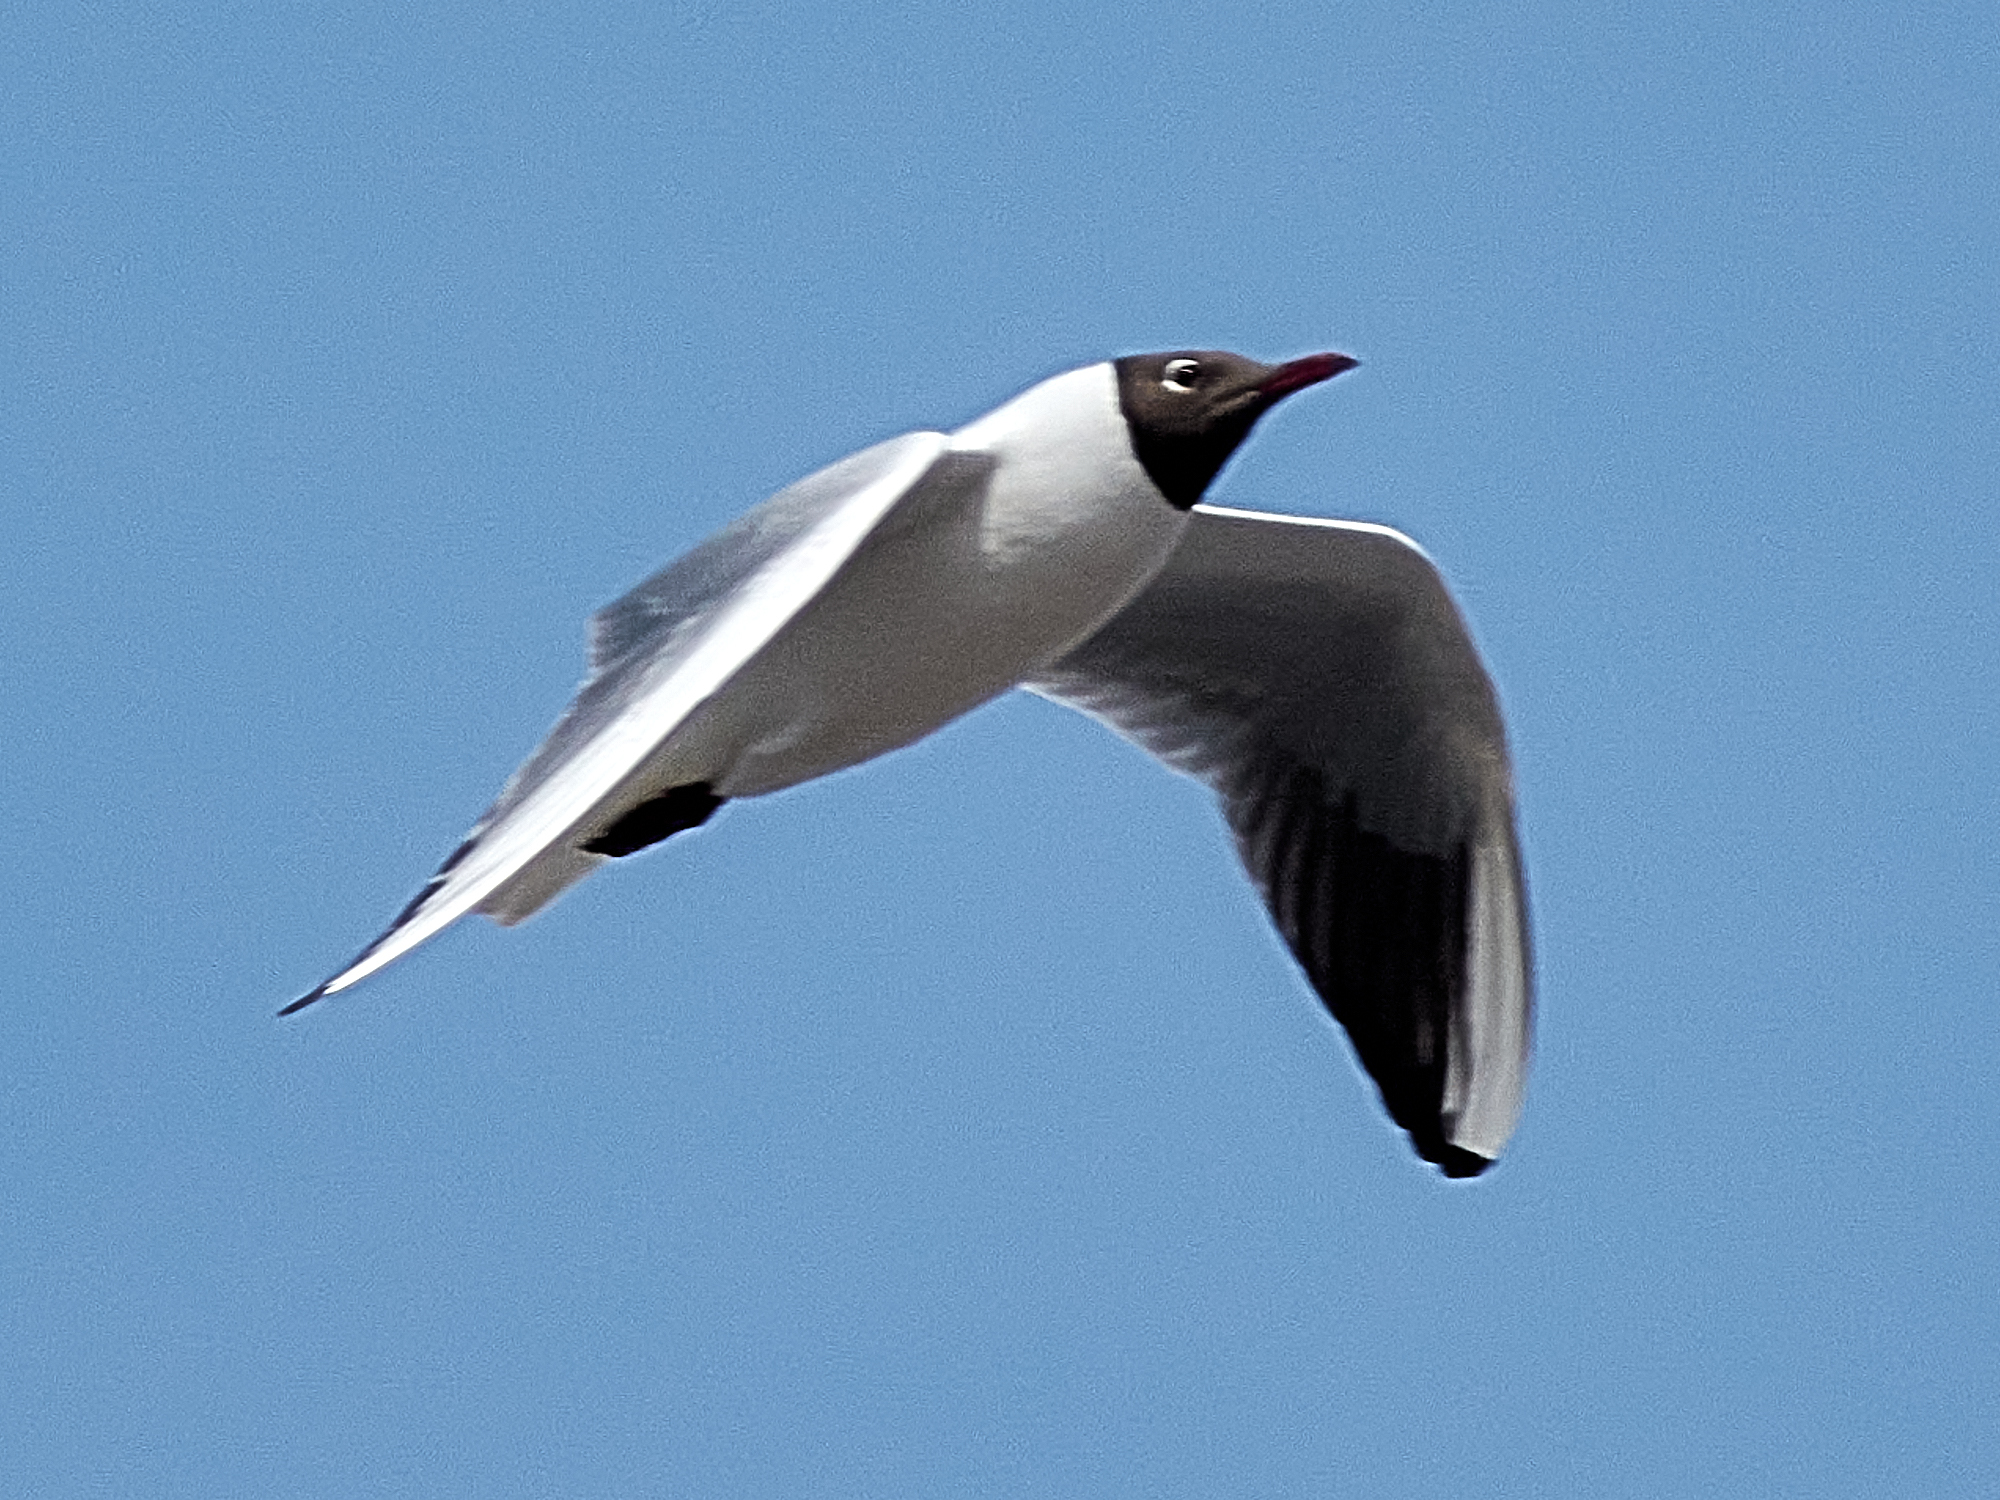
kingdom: Animalia
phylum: Chordata
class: Aves
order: Charadriiformes
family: Laridae
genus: Chroicocephalus
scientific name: Chroicocephalus ridibundus
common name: Black-headed gull
